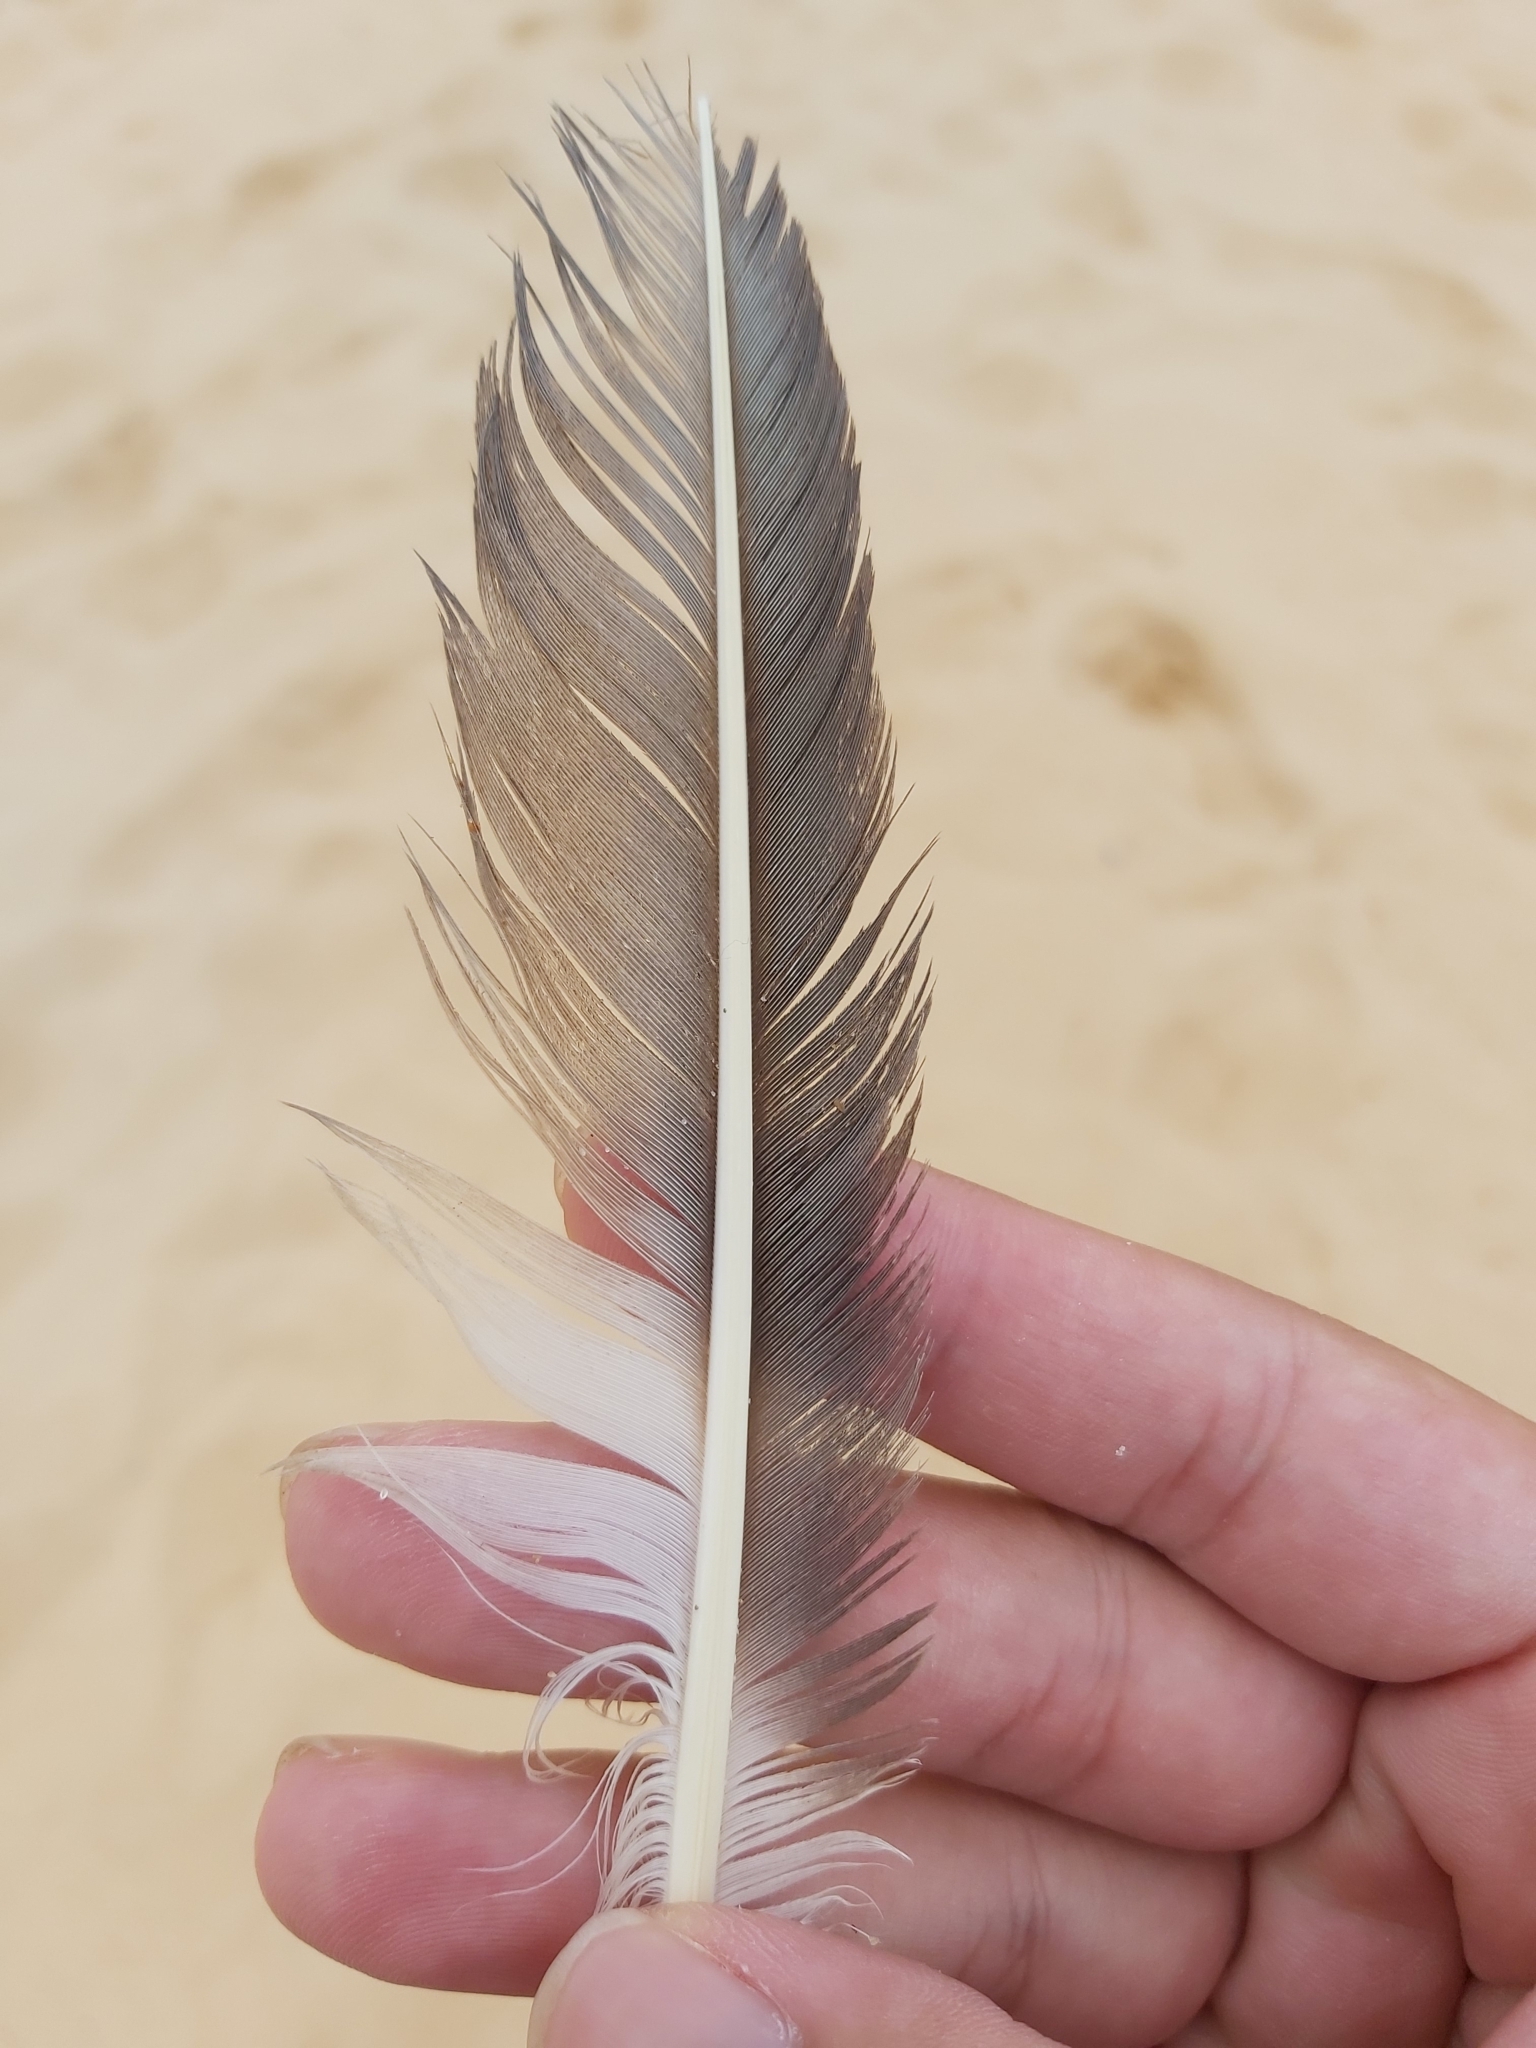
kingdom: Animalia
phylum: Chordata
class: Aves
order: Suliformes
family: Sulidae
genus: Morus
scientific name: Morus serrator
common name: Australasian gannet
